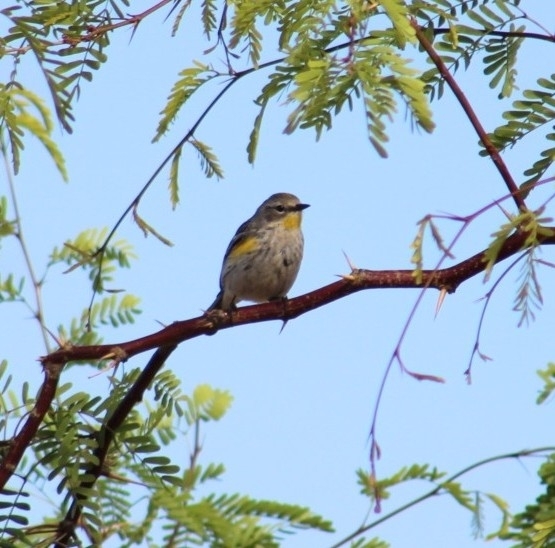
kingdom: Animalia
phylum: Chordata
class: Aves
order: Passeriformes
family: Parulidae
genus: Setophaga
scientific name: Setophaga coronata
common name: Myrtle warbler
